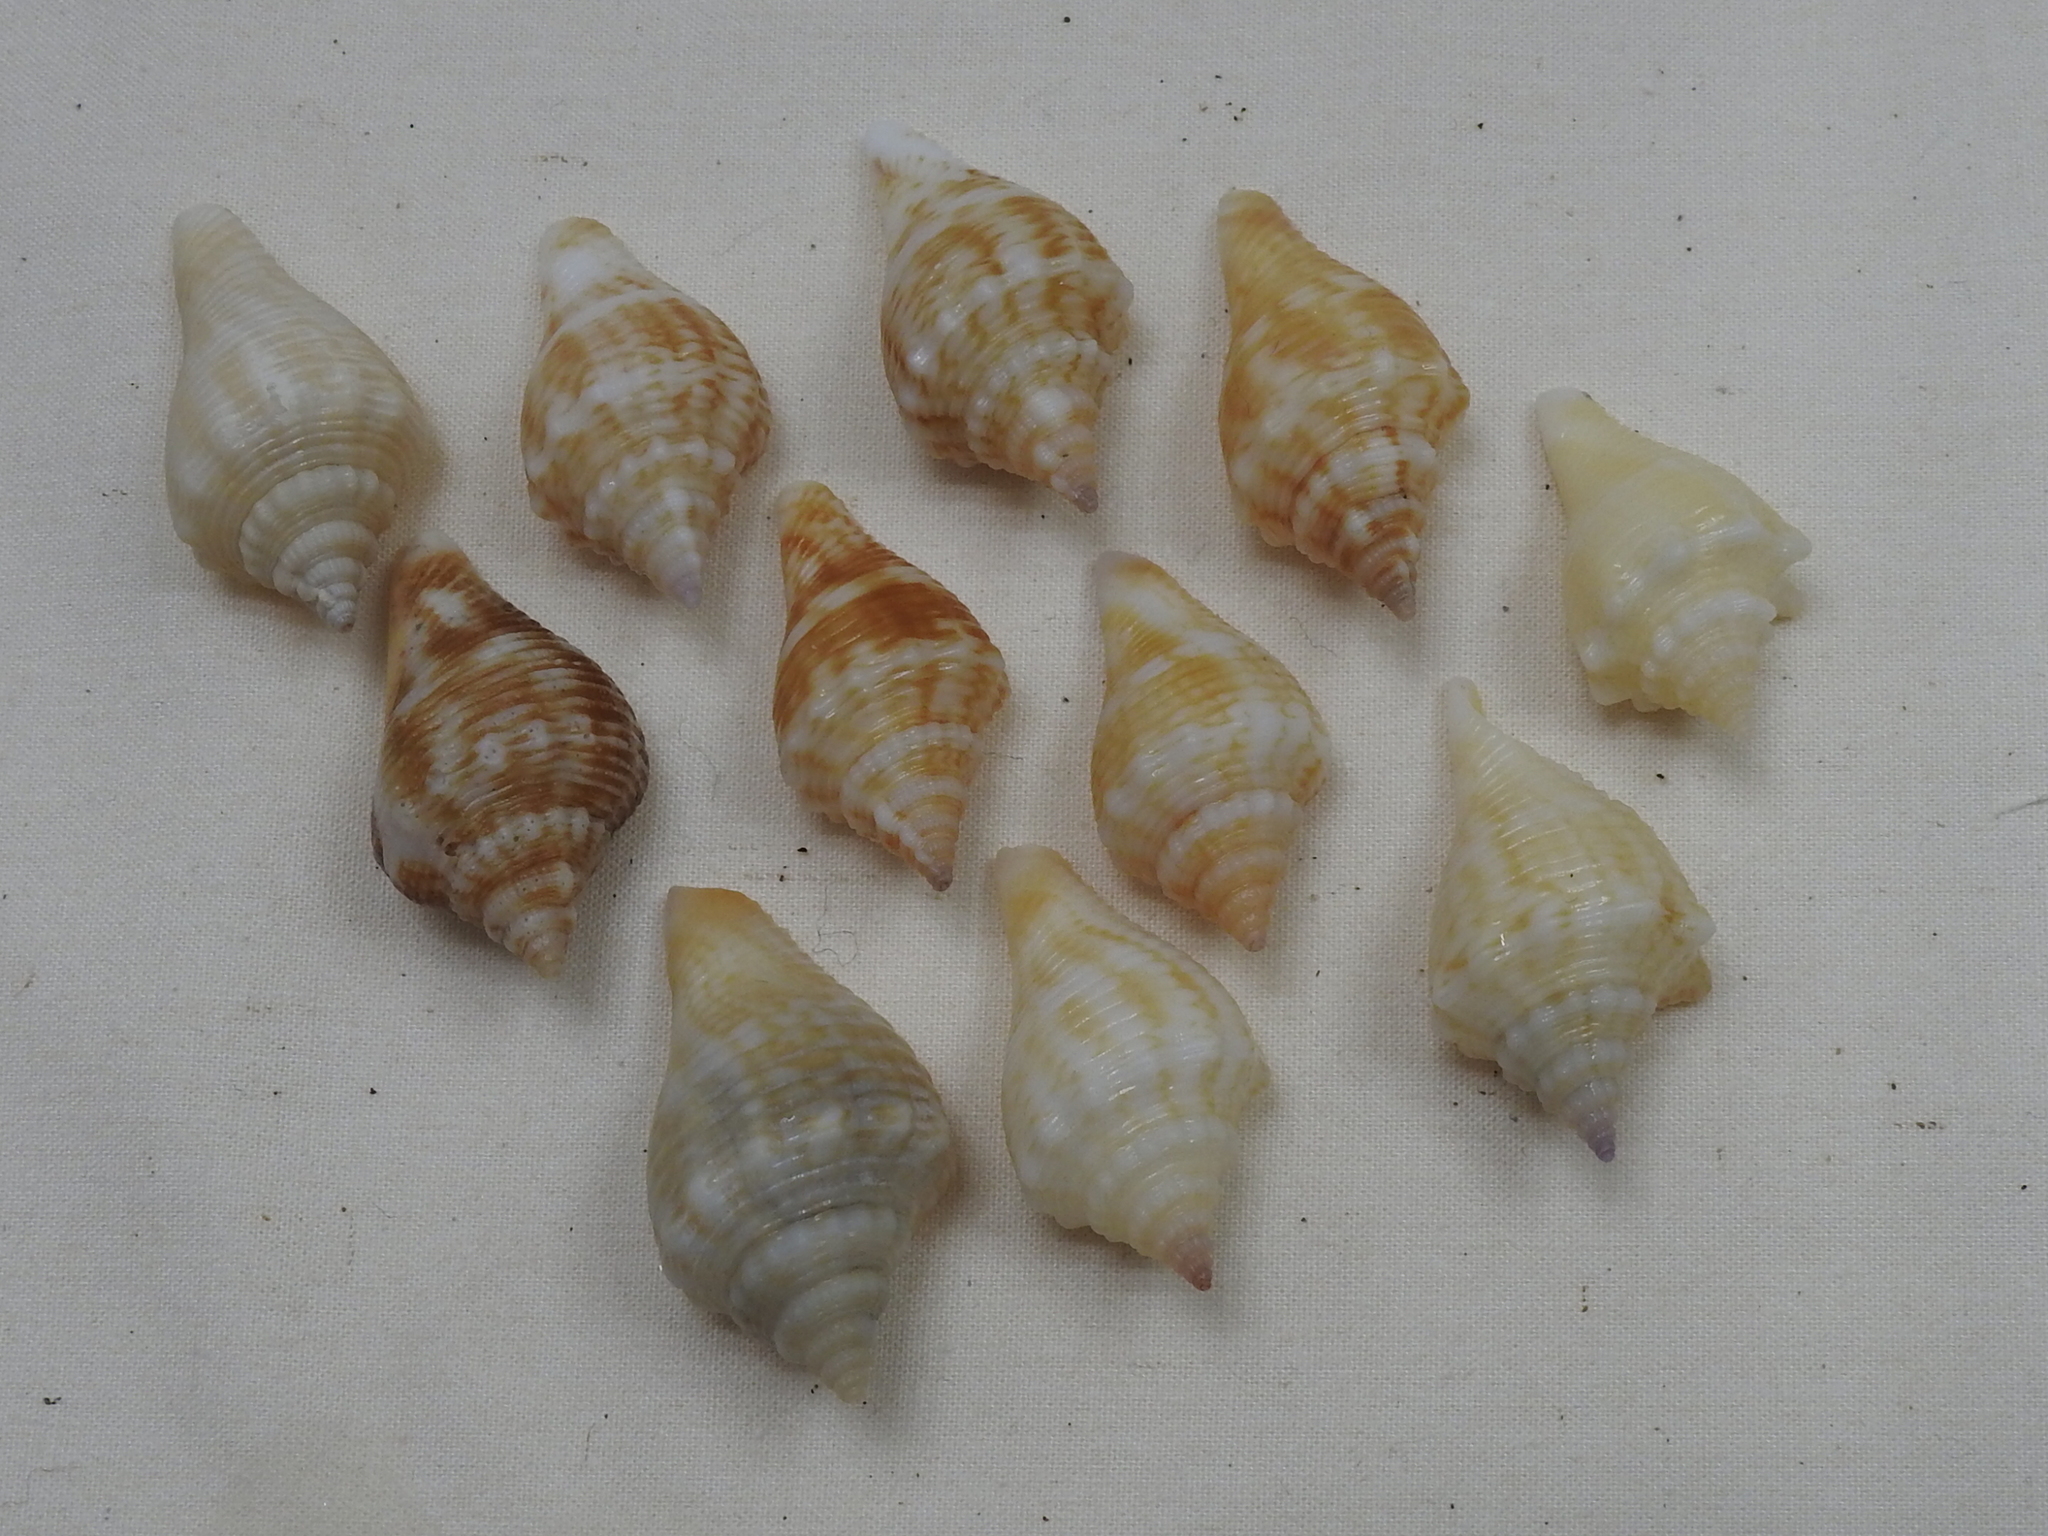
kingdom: Animalia
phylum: Mollusca
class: Gastropoda
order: Littorinimorpha
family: Strombidae
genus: Strombus
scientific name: Strombus alatus
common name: Florida fighting conch
